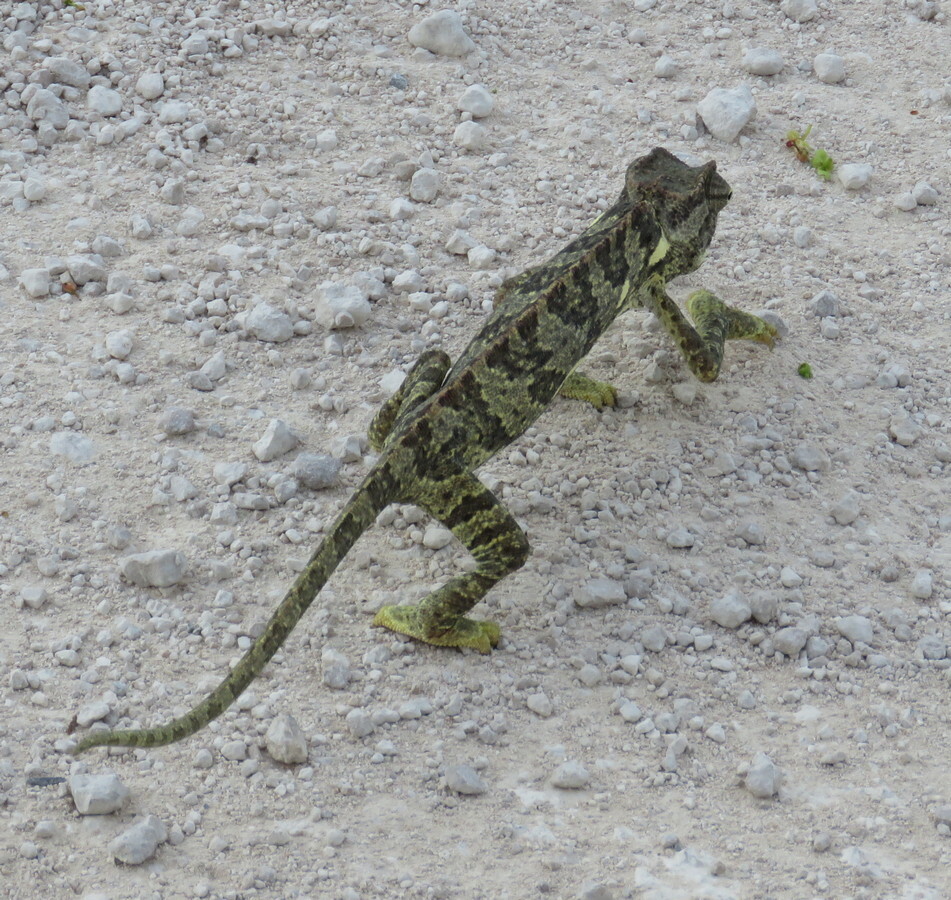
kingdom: Animalia
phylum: Chordata
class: Squamata
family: Chamaeleonidae
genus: Chamaeleo
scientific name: Chamaeleo dilepis
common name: Flapneck chameleon
